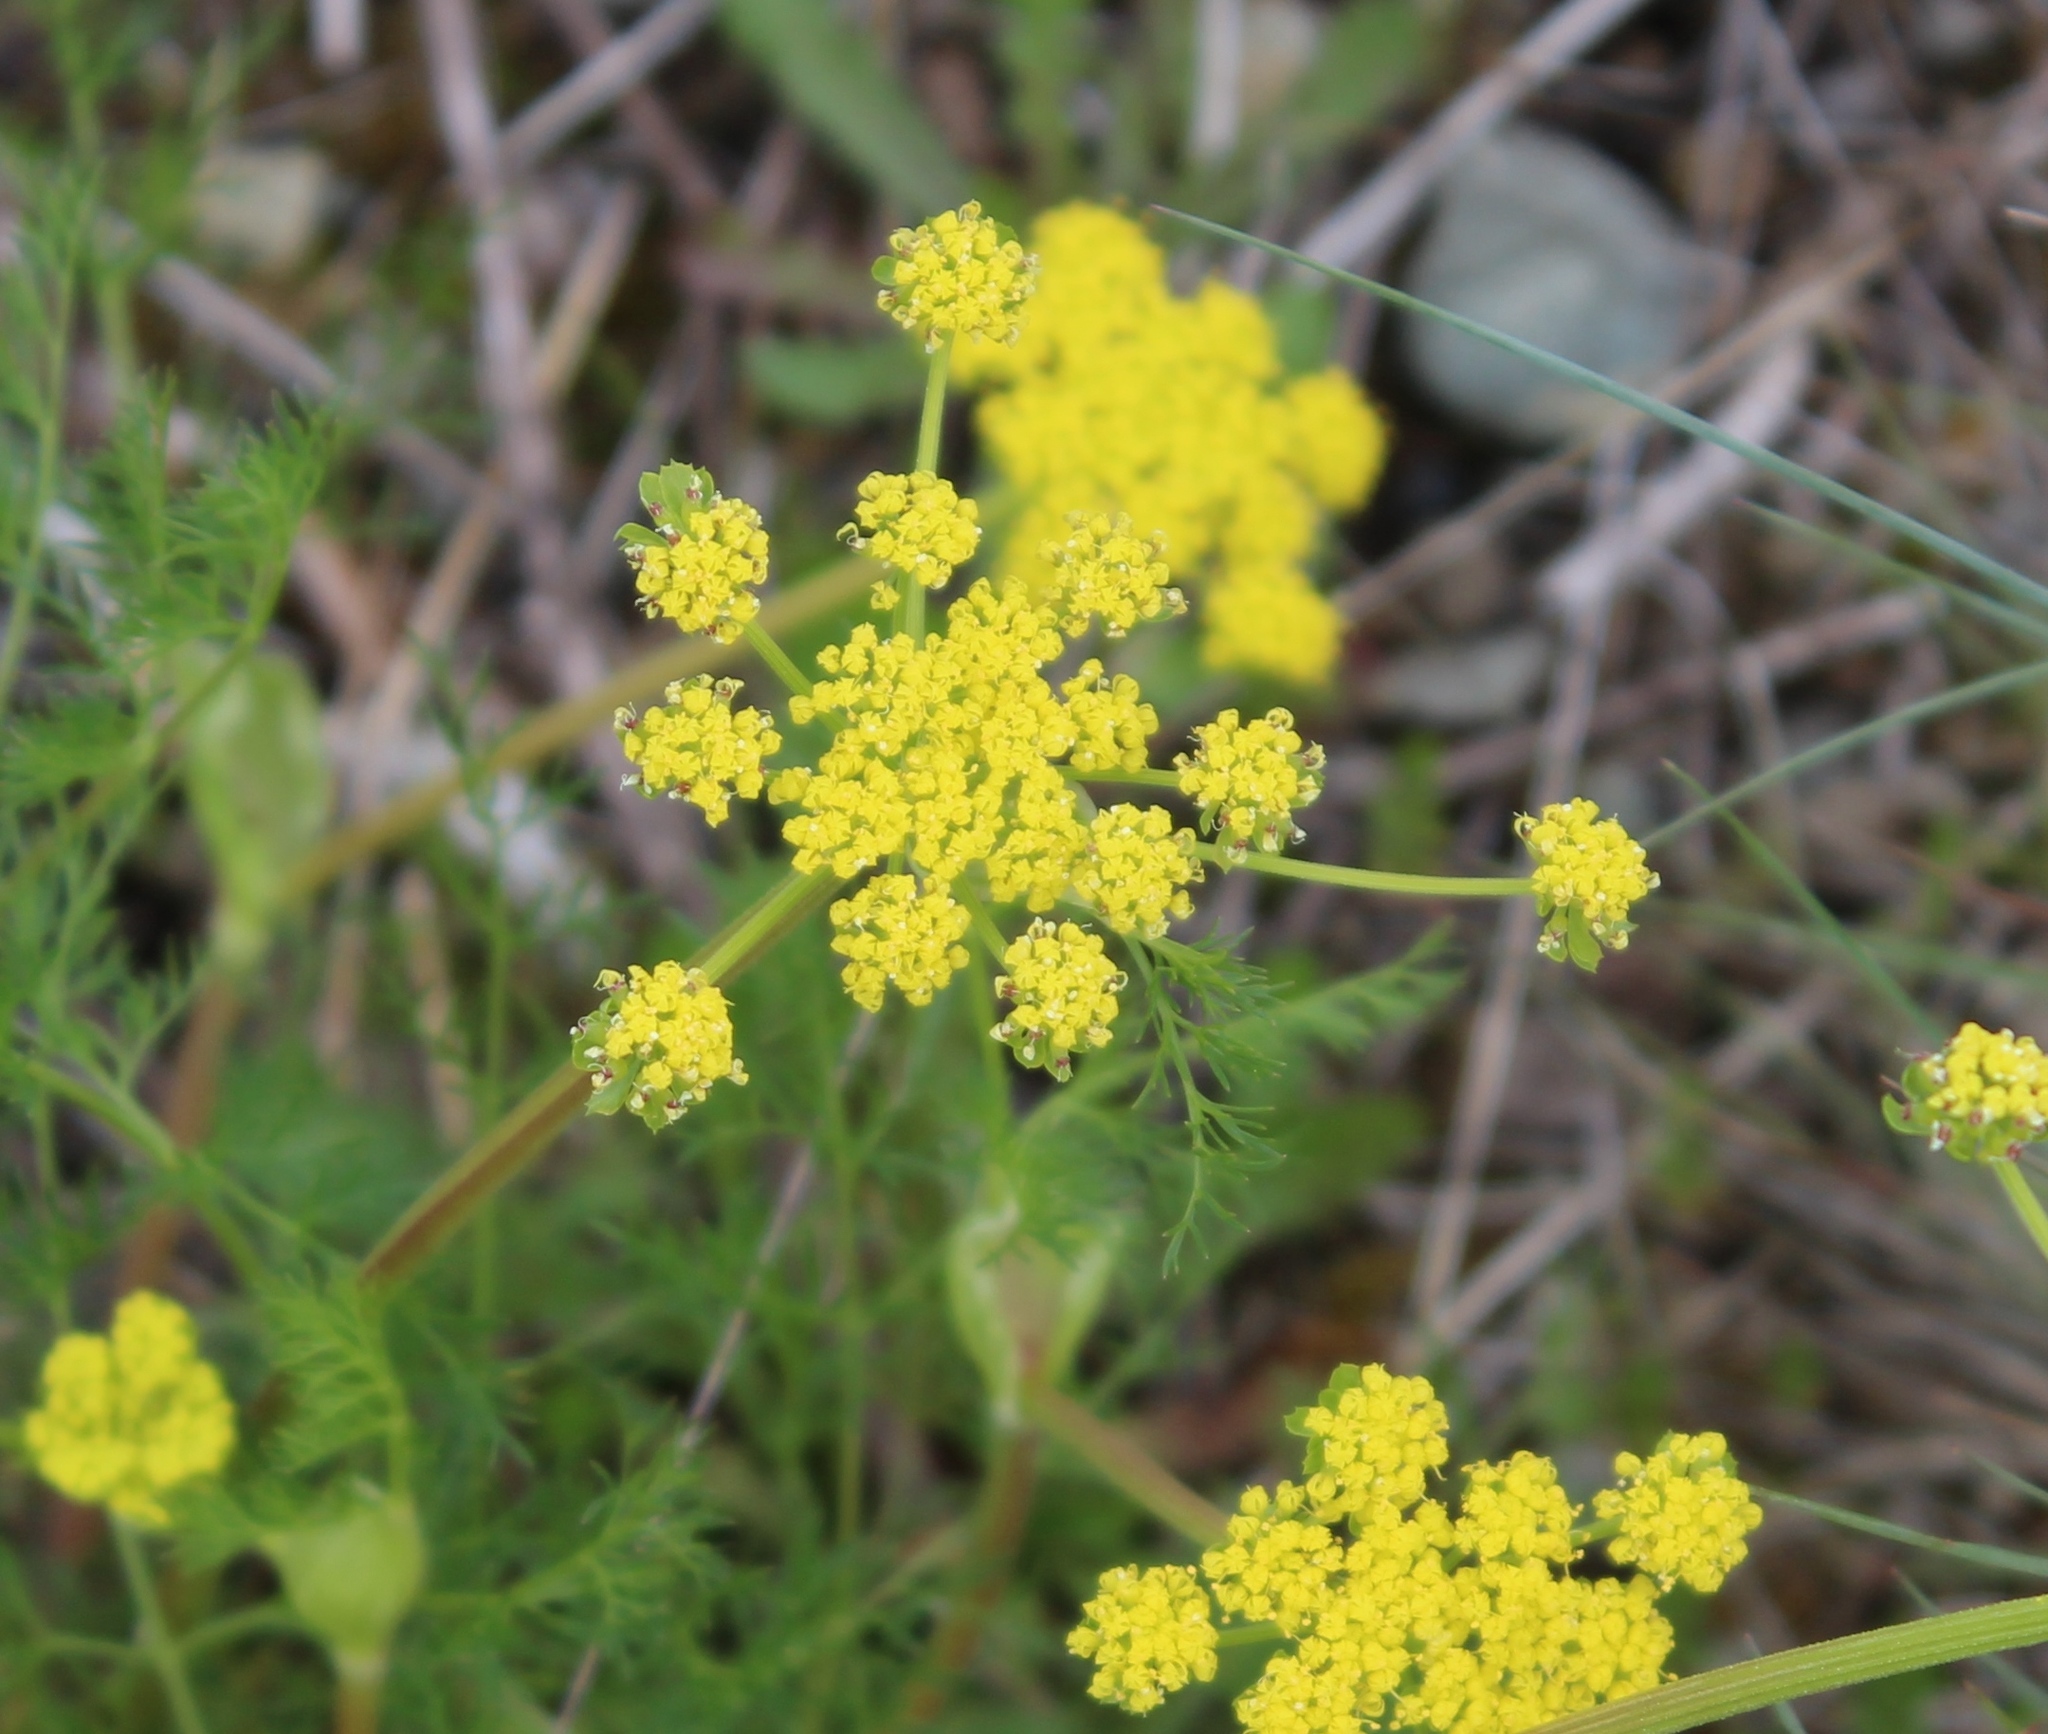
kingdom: Plantae
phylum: Tracheophyta
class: Magnoliopsida
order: Apiales
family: Apiaceae
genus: Lomatium
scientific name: Lomatium utriculatum
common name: Fine-leaf desert-parsley
